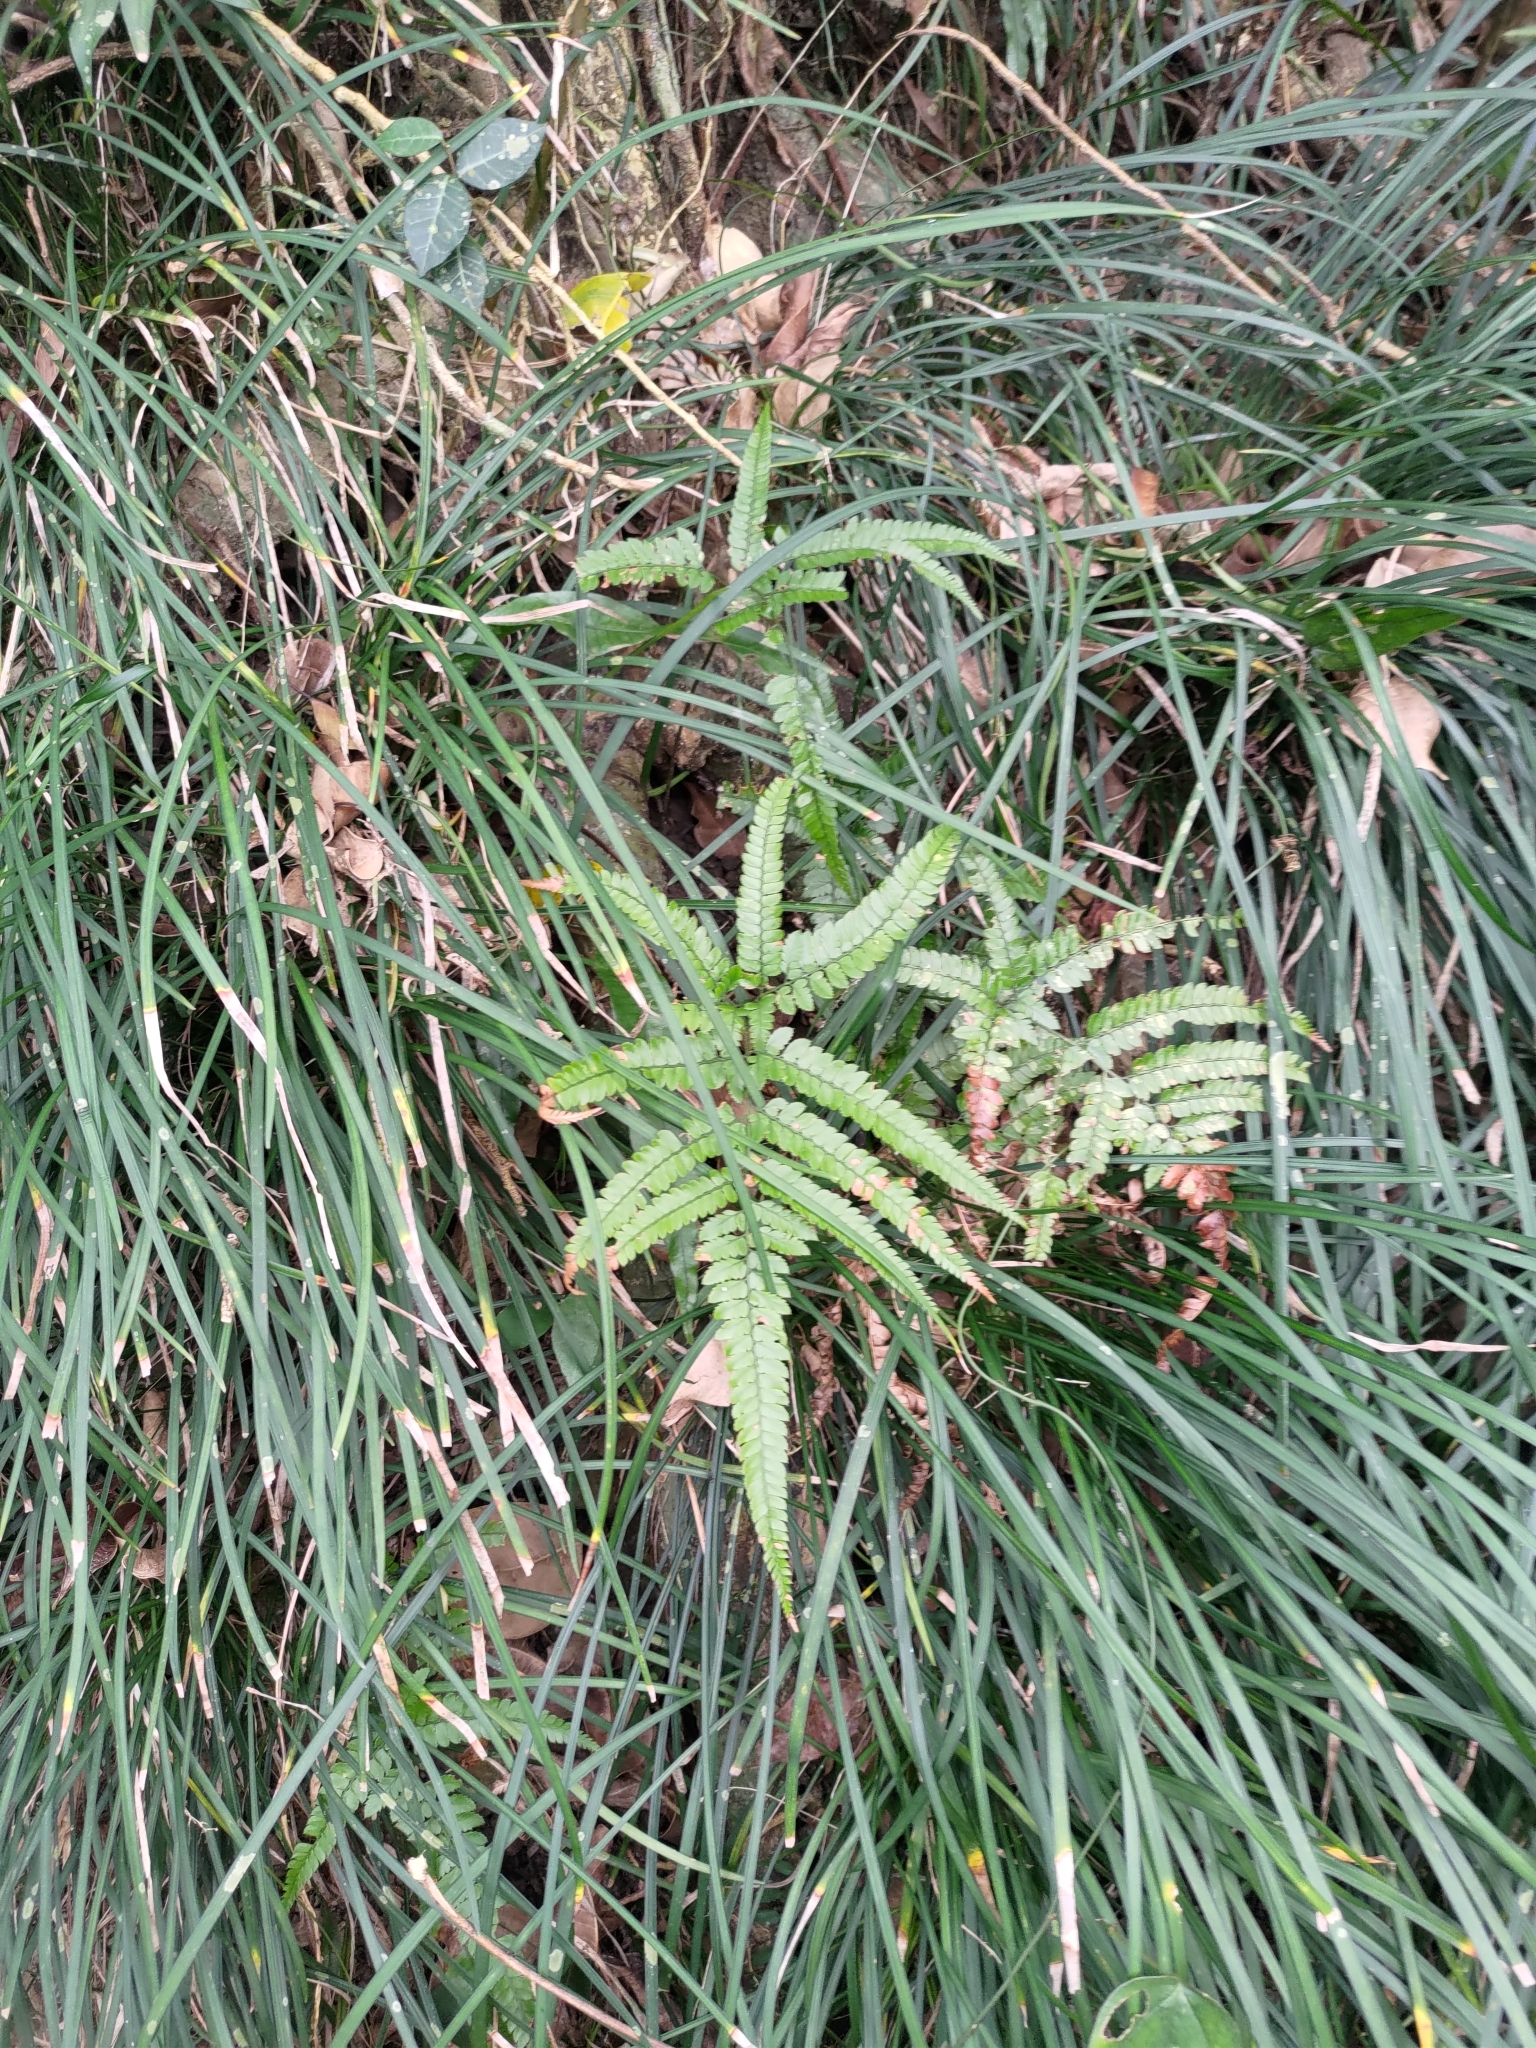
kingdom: Plantae
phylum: Tracheophyta
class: Polypodiopsida
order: Polypodiales
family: Dryopteridaceae
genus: Arachniodes
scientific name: Arachniodes aristata
